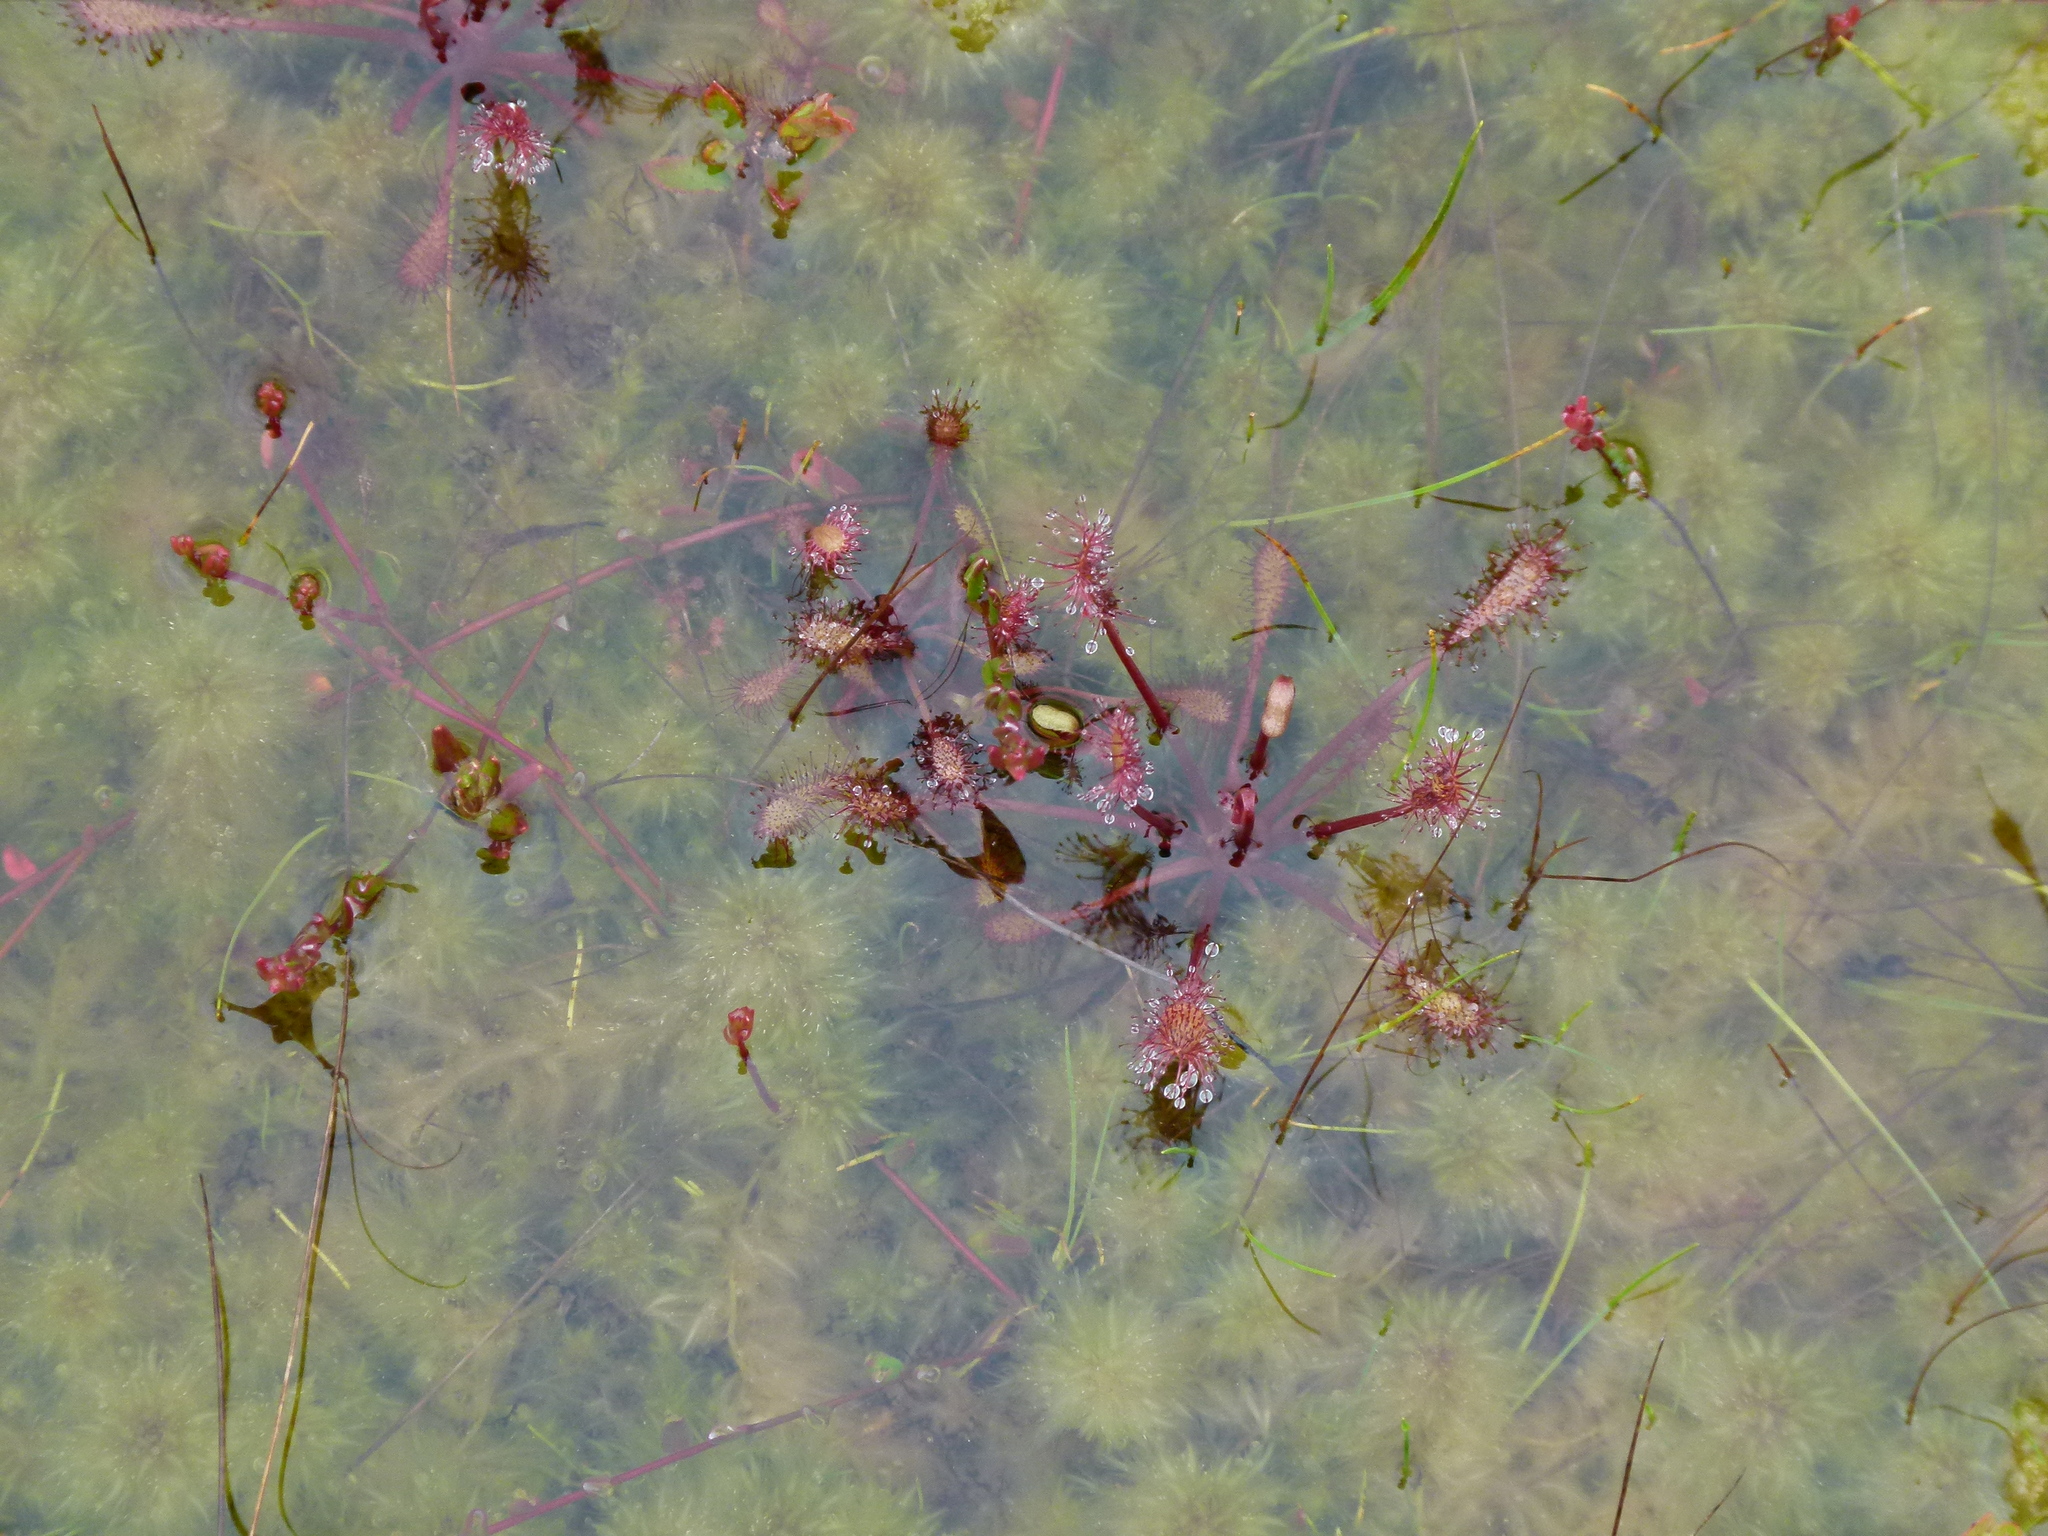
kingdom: Plantae
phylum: Tracheophyta
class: Magnoliopsida
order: Caryophyllales
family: Droseraceae
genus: Drosera
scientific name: Drosera intermedia
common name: Oblong-leaved sundew
